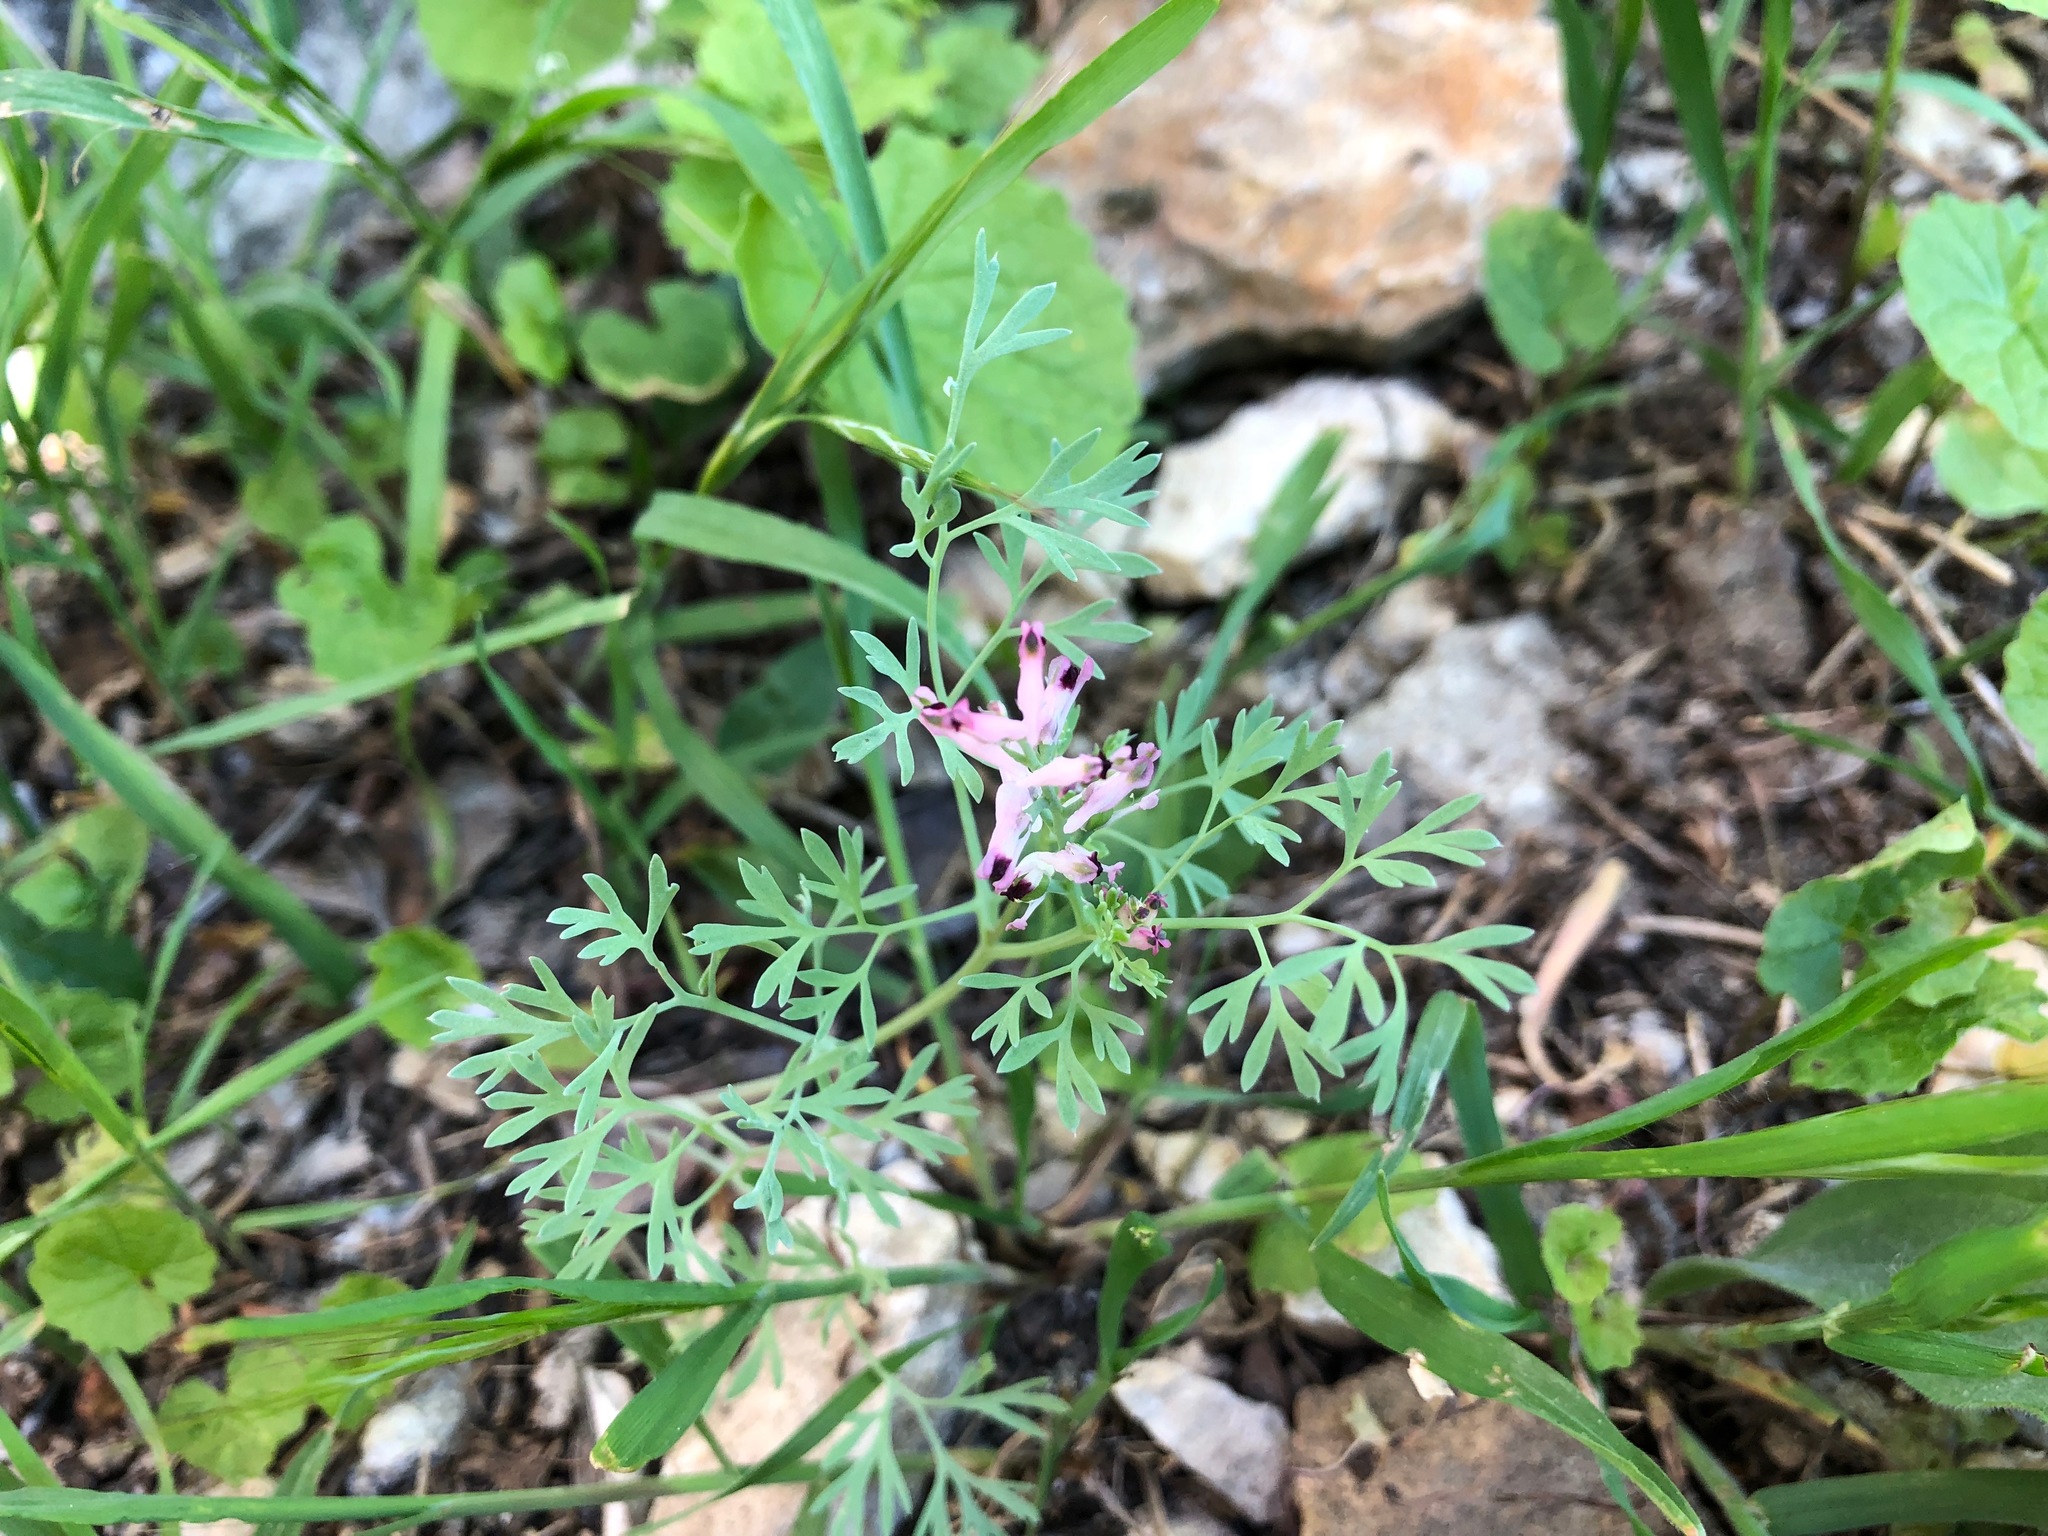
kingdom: Plantae
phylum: Tracheophyta
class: Magnoliopsida
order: Ranunculales
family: Papaveraceae
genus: Fumaria
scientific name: Fumaria vaillantii
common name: Few-flowered fumitory
